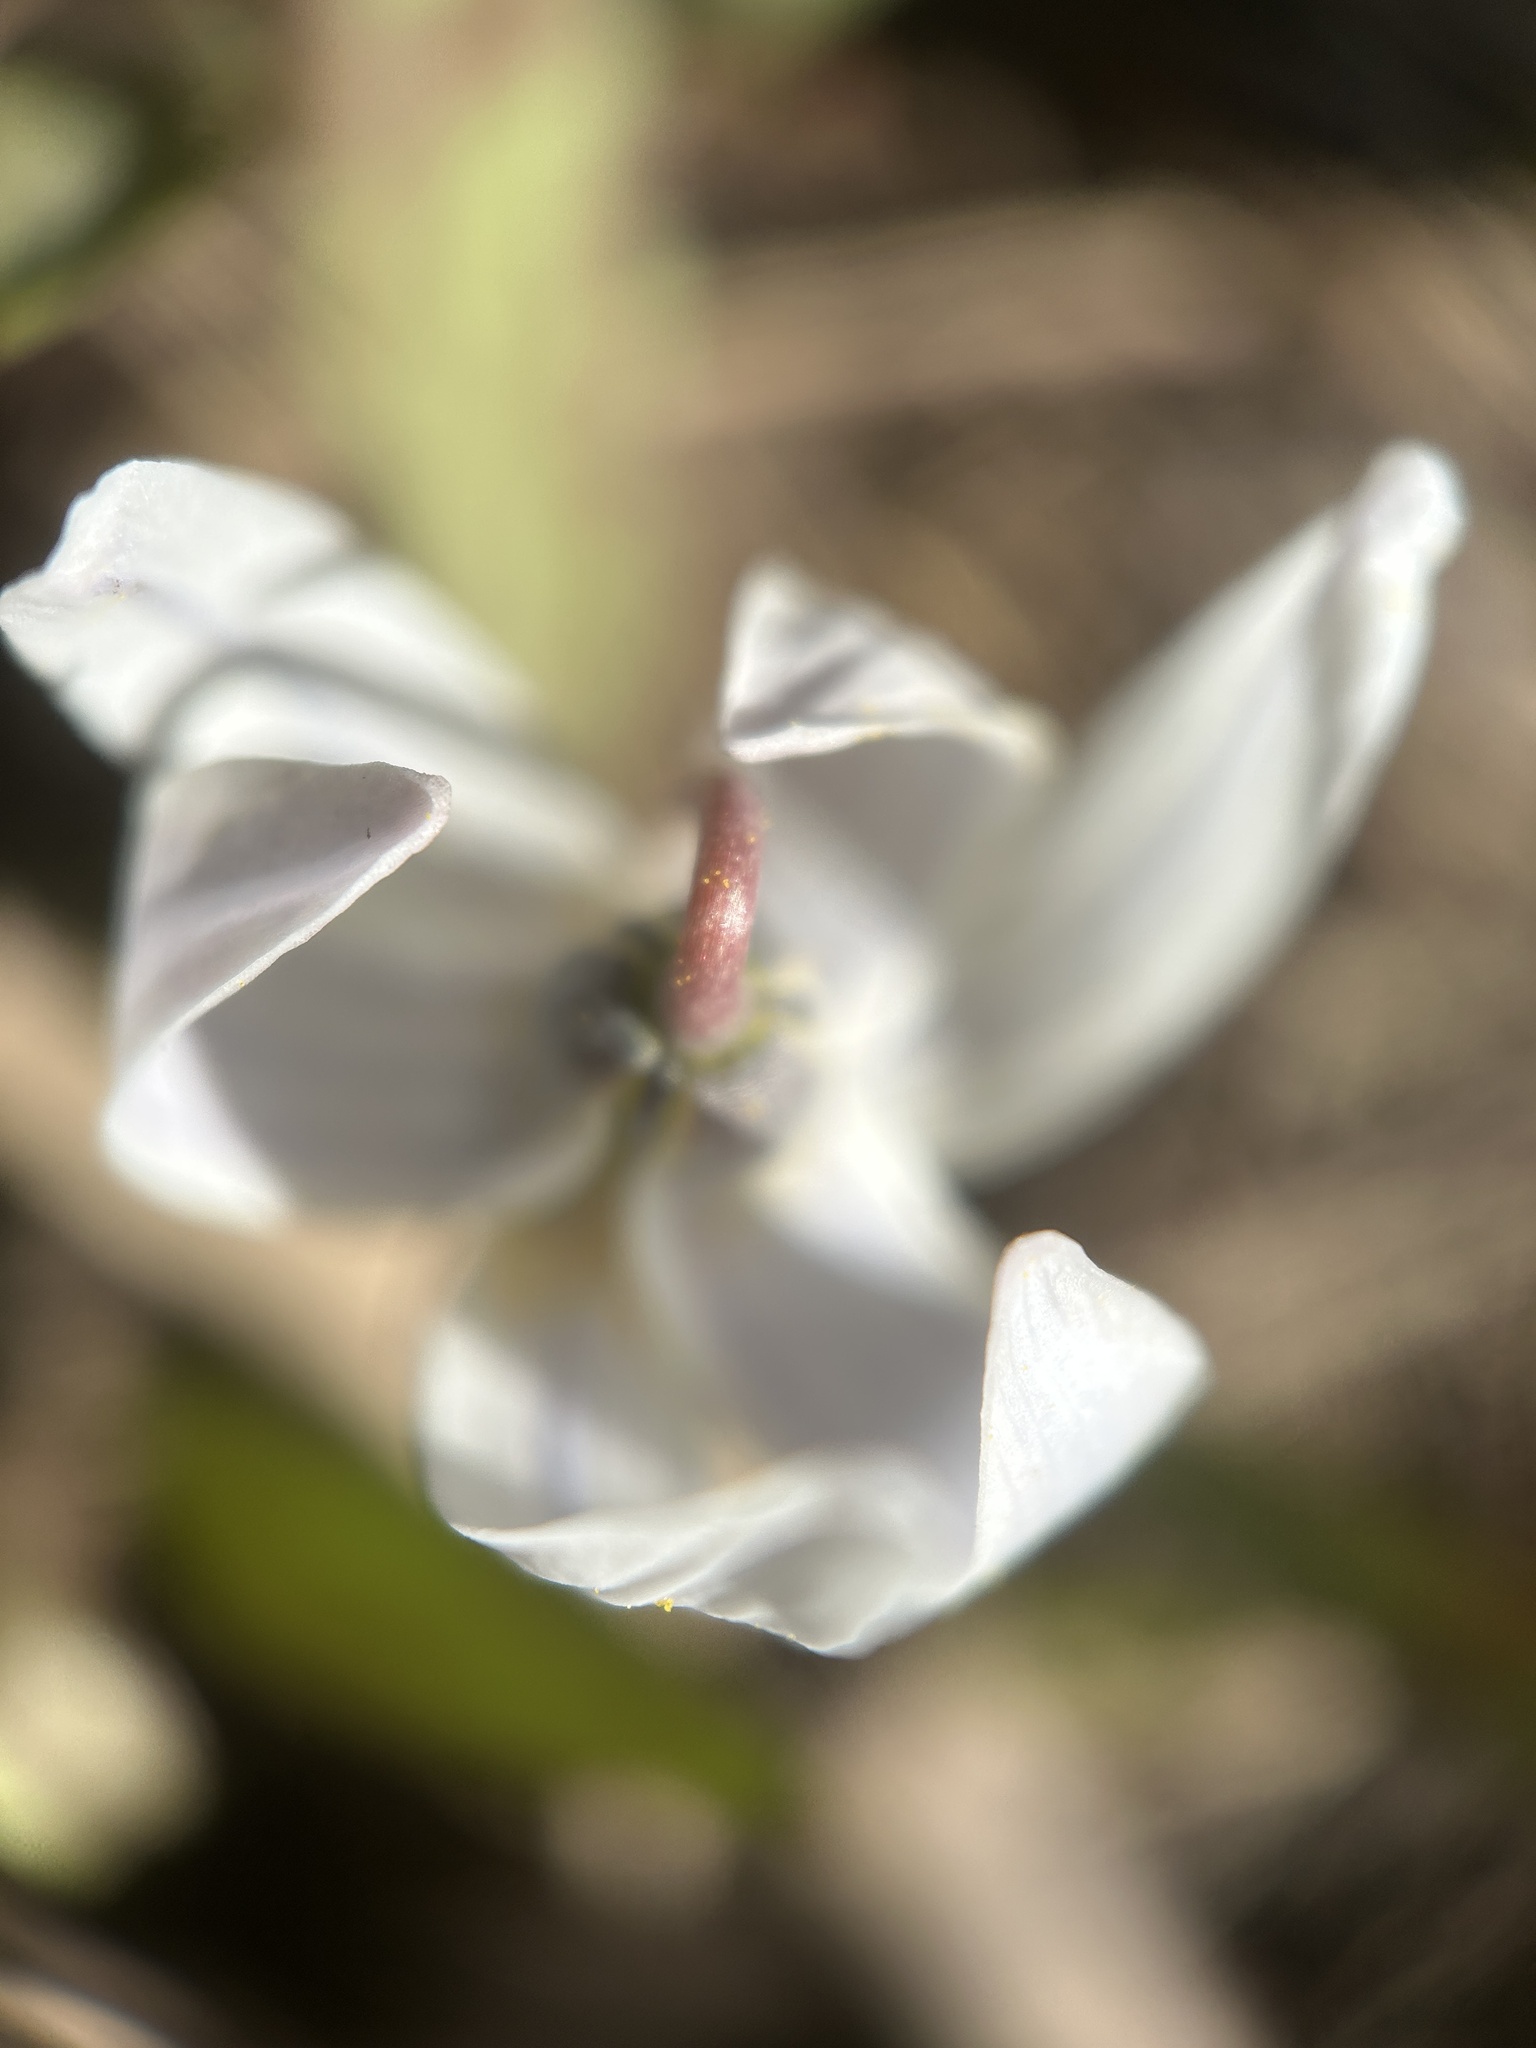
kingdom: Plantae
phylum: Tracheophyta
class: Liliopsida
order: Liliales
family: Liliaceae
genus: Erythronium
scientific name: Erythronium albidum
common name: White trout-lily
